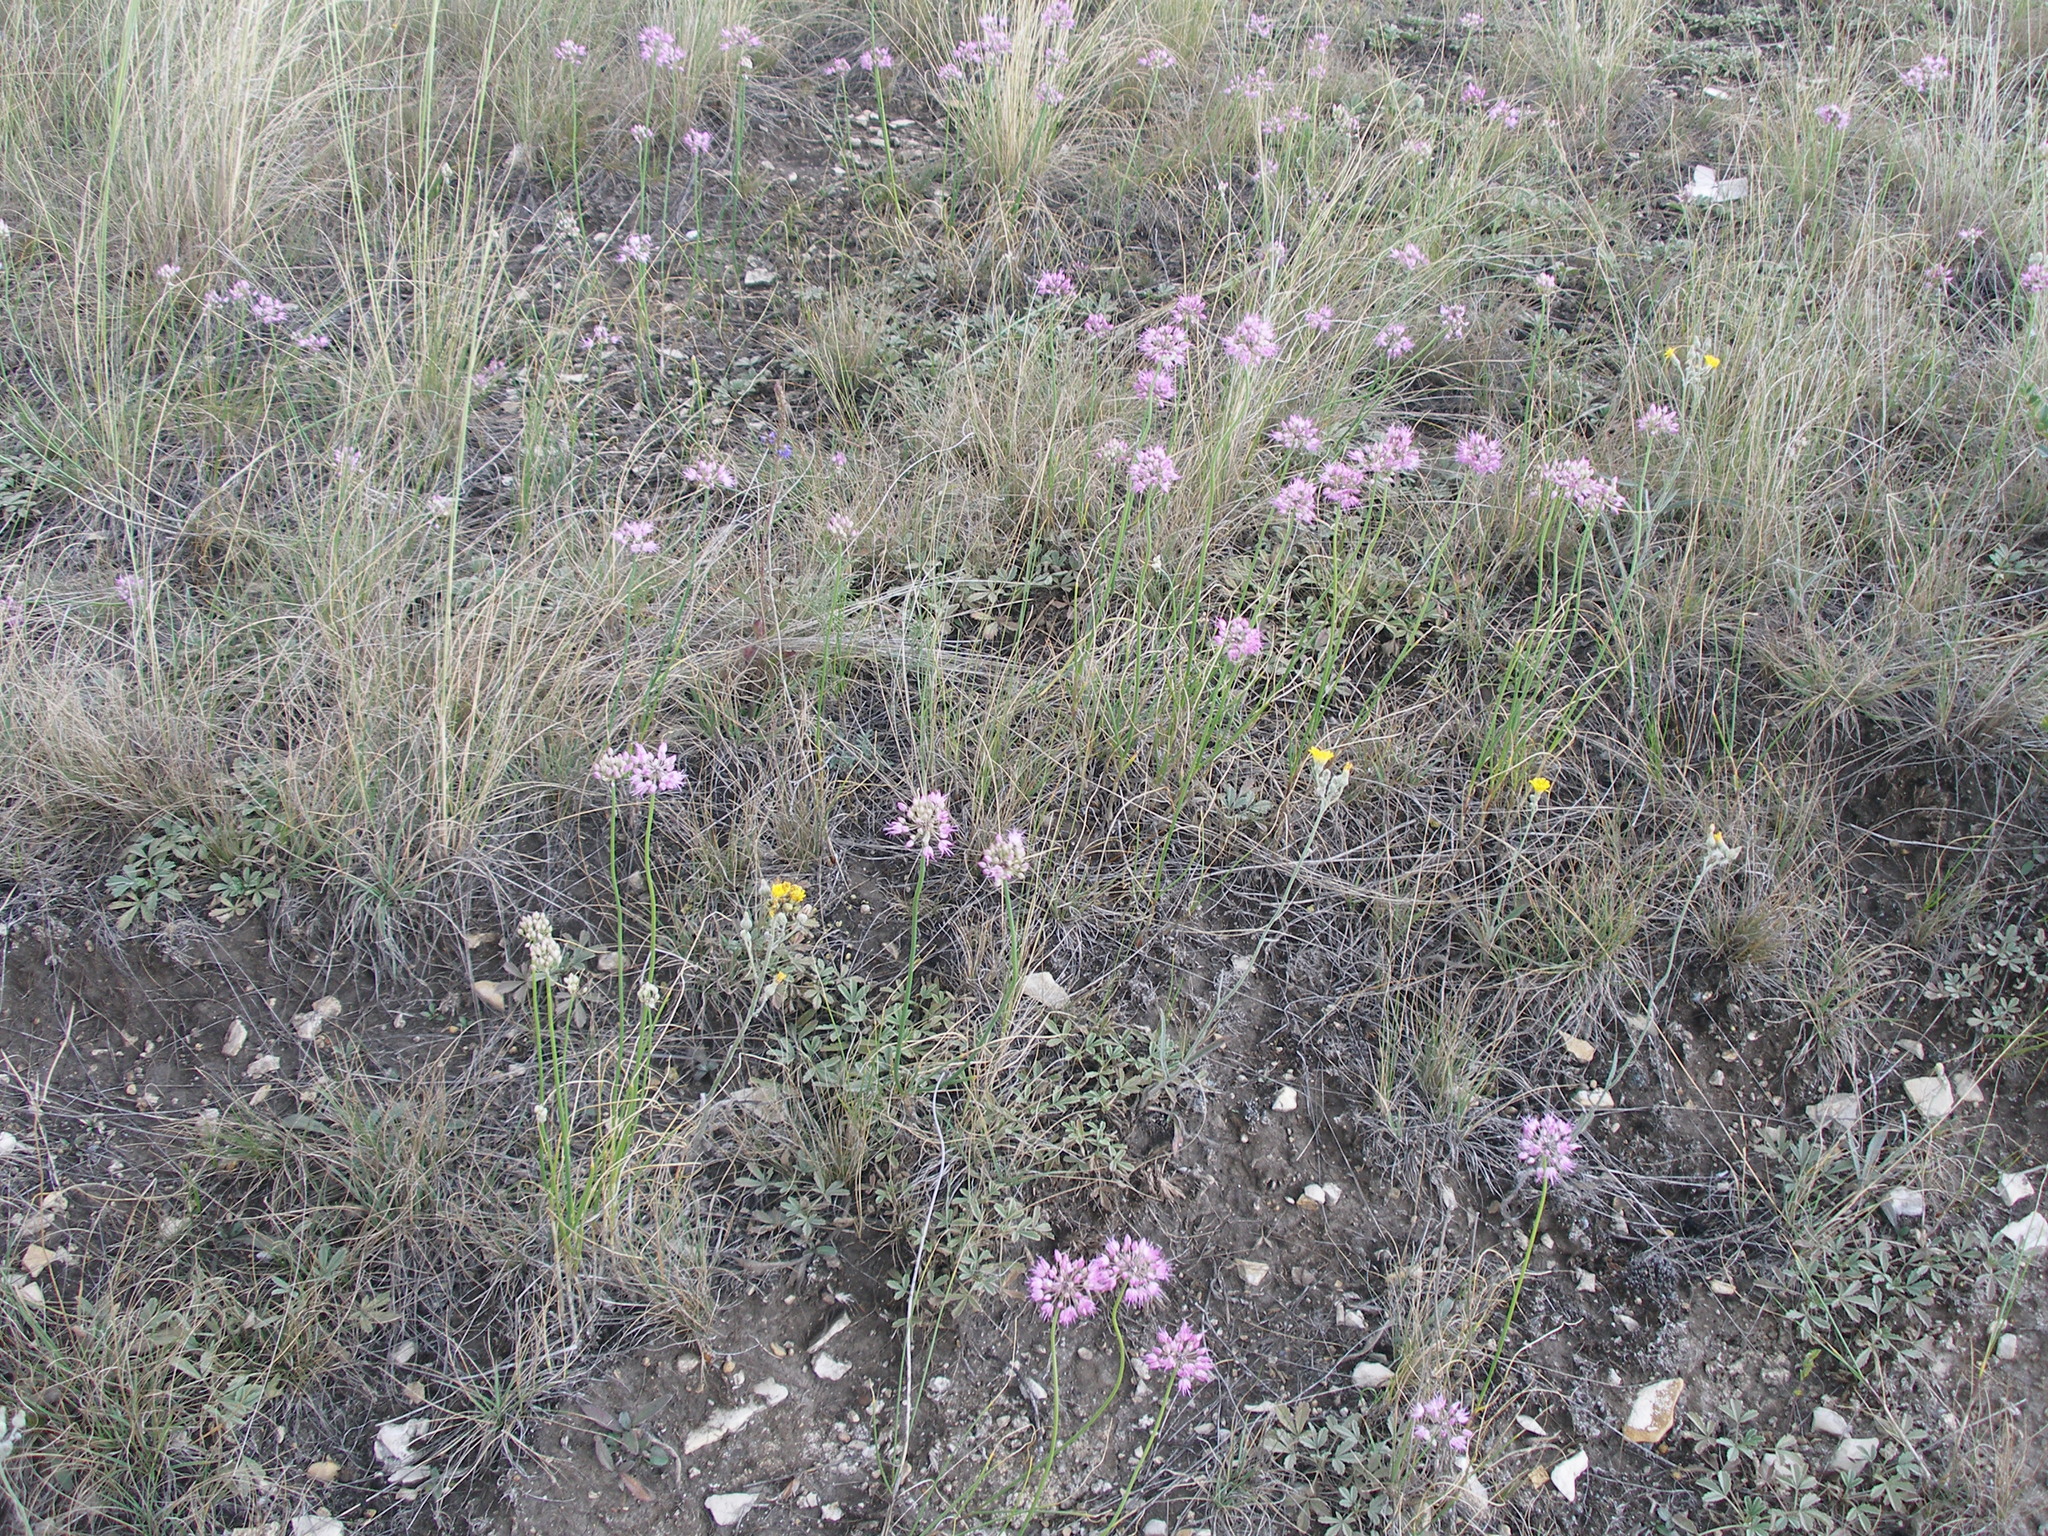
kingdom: Plantae
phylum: Tracheophyta
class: Liliopsida
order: Asparagales
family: Amaryllidaceae
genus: Allium
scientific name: Allium cretaceum
